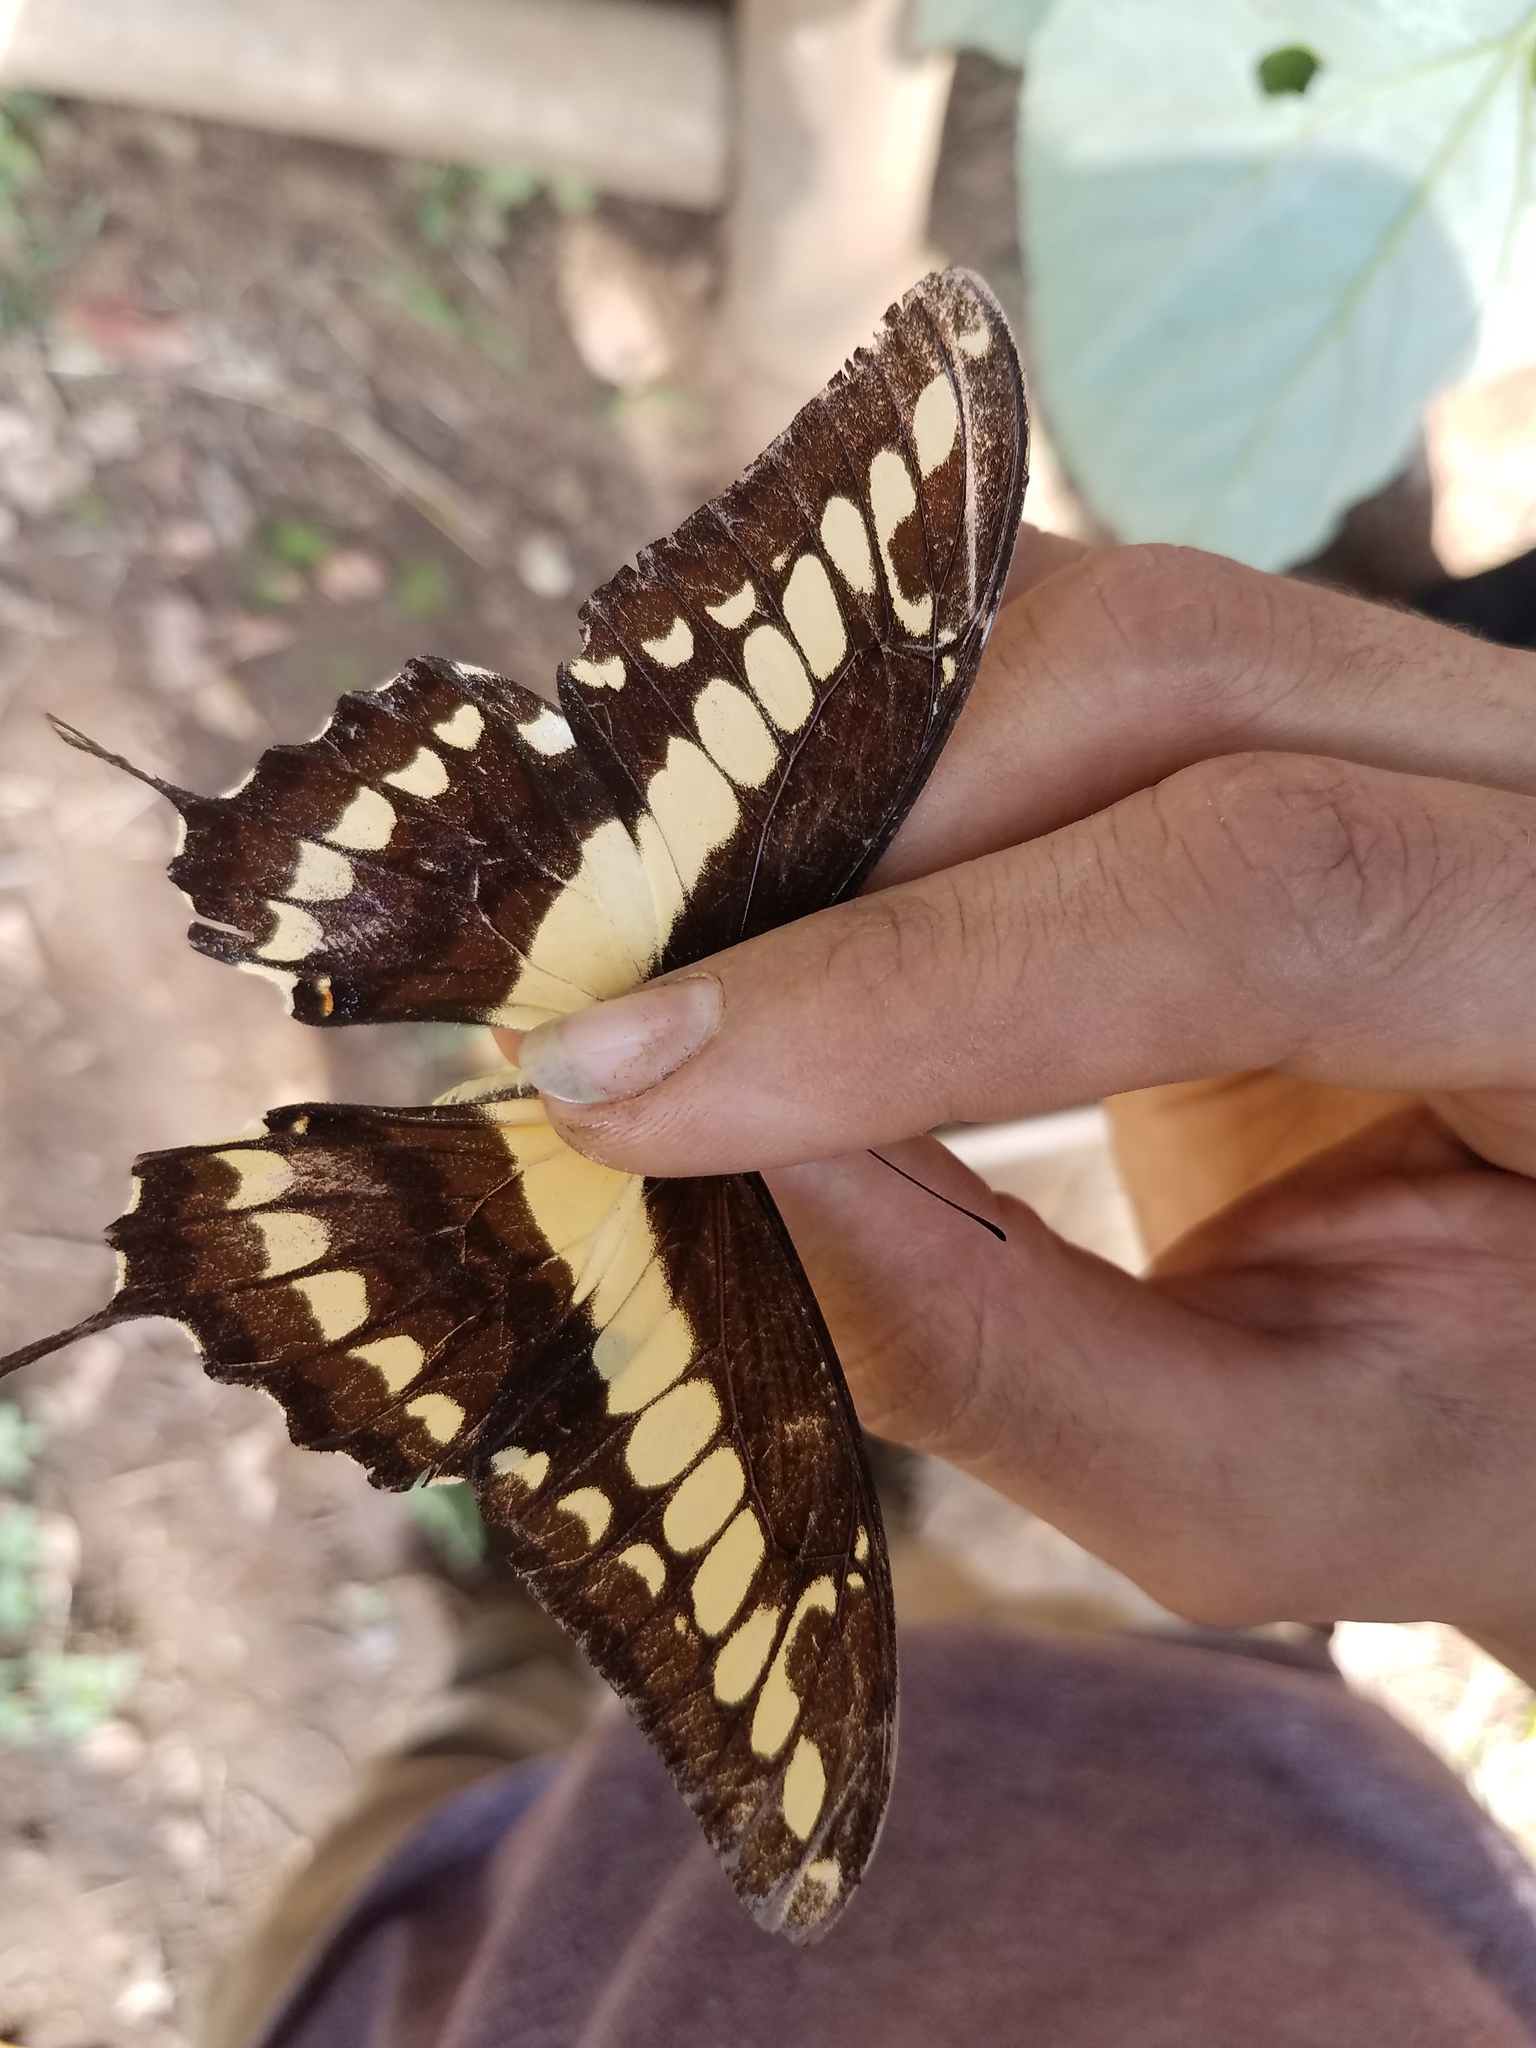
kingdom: Animalia
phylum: Arthropoda
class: Insecta
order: Lepidoptera
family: Papilionidae
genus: Papilio
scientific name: Papilio thoas
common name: King swallowtail
